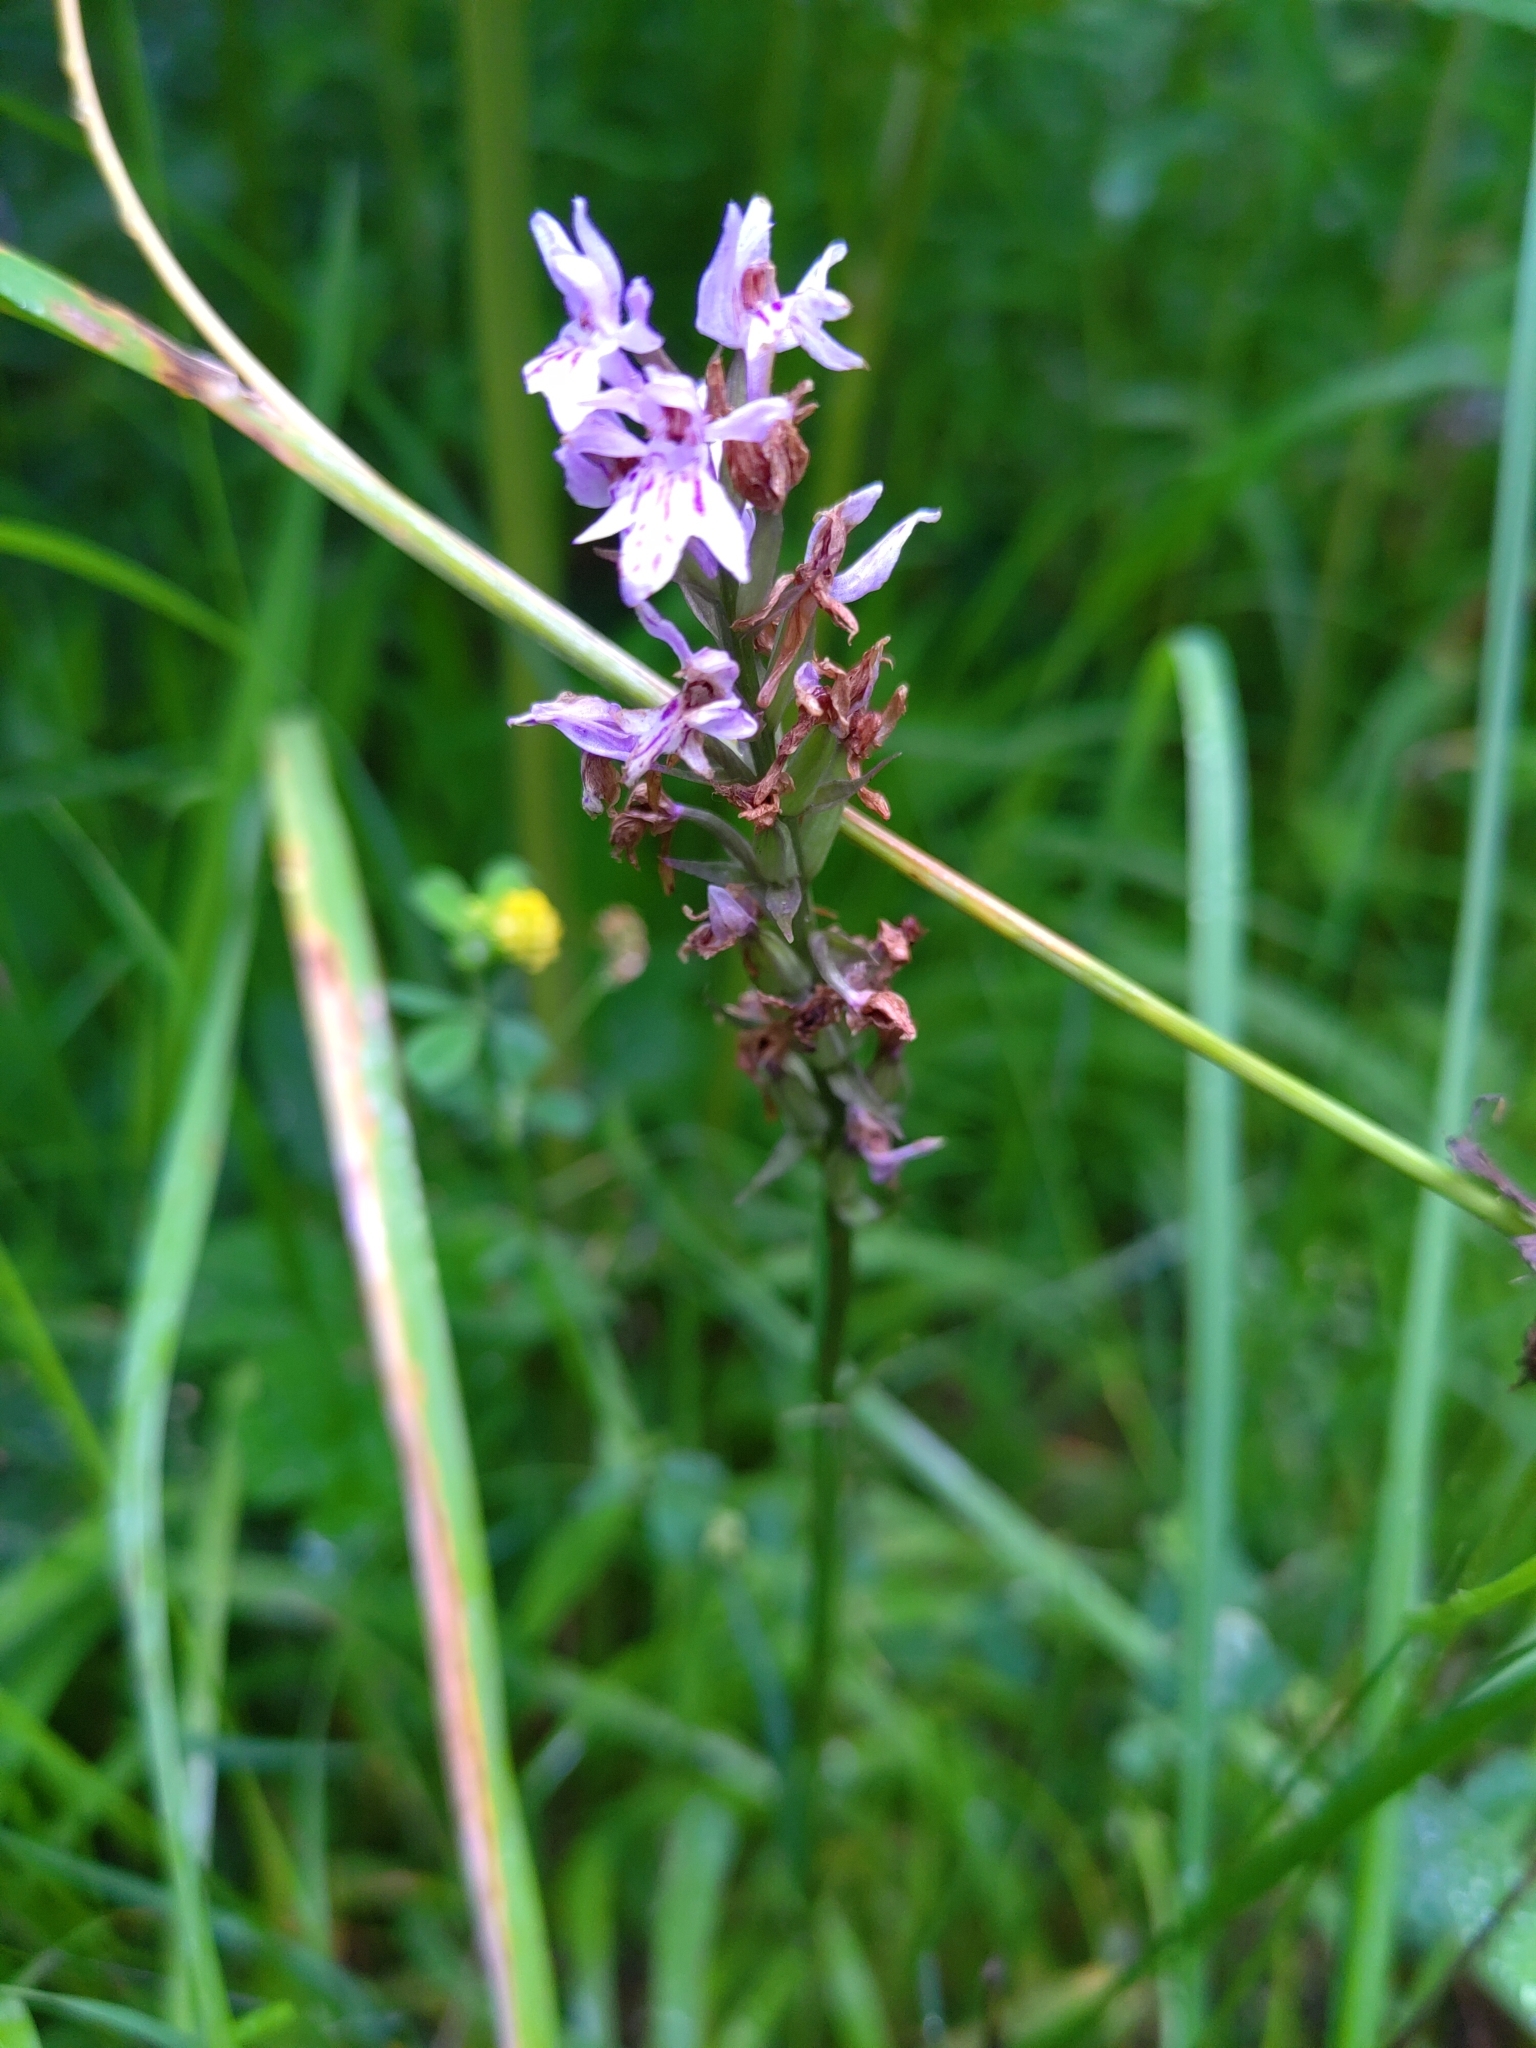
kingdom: Plantae
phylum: Tracheophyta
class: Liliopsida
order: Asparagales
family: Orchidaceae
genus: Dactylorhiza
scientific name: Dactylorhiza maculata
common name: Heath spotted-orchid
